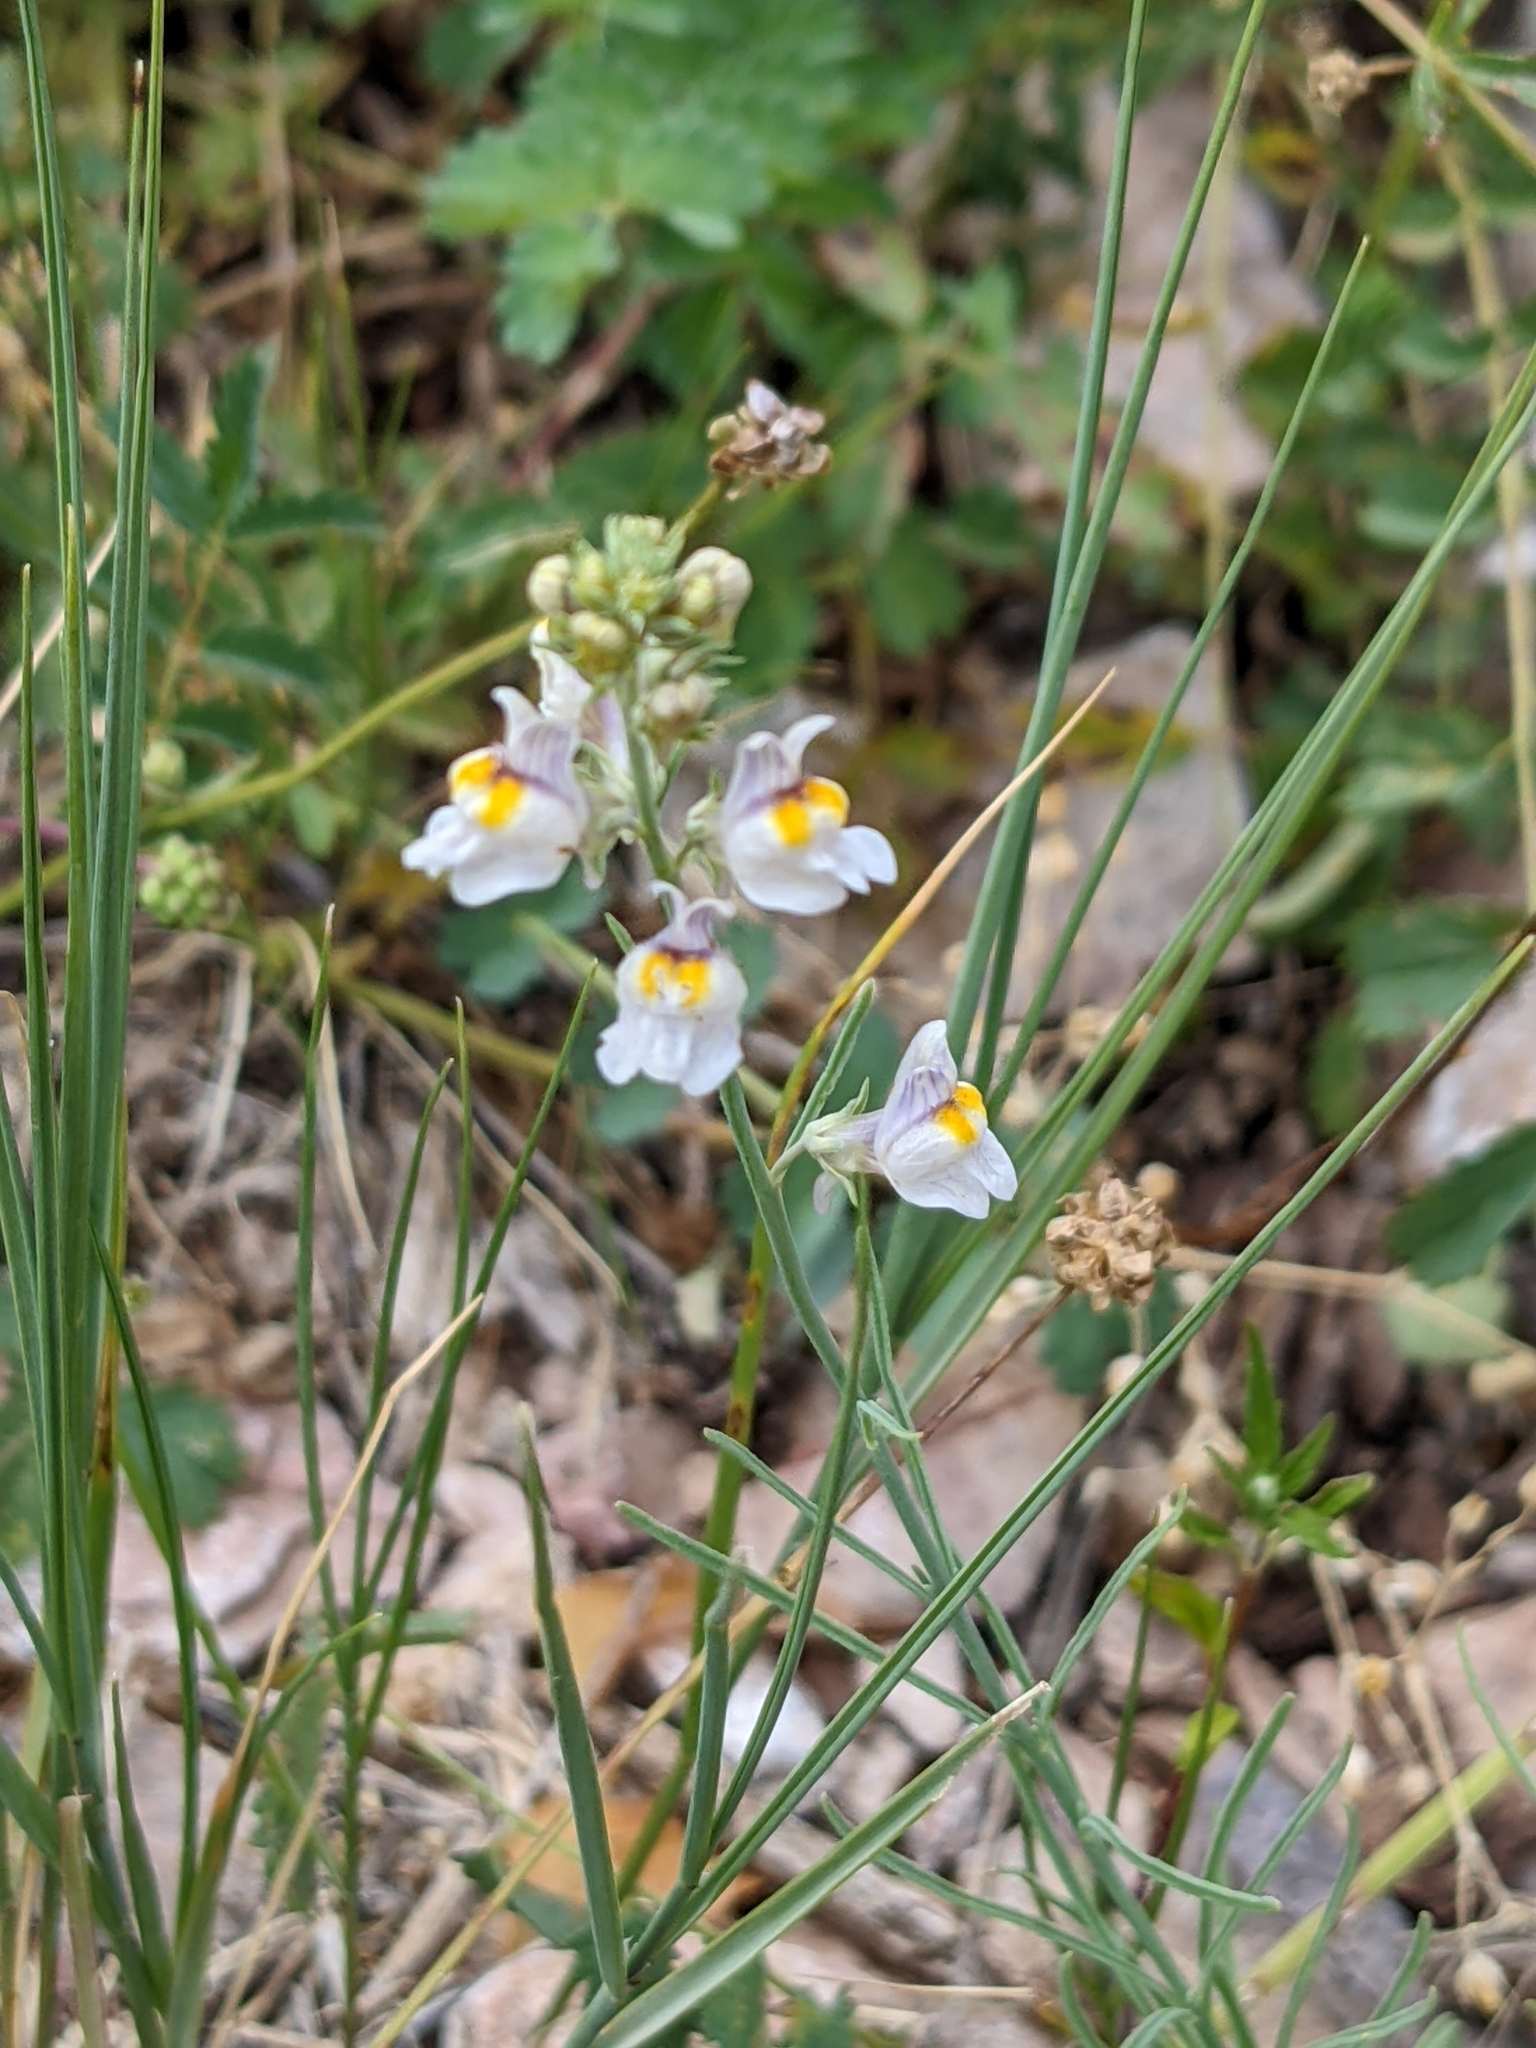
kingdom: Plantae
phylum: Tracheophyta
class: Magnoliopsida
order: Lamiales
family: Plantaginaceae
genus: Linaria
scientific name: Linaria repens
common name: Pale toadflax
